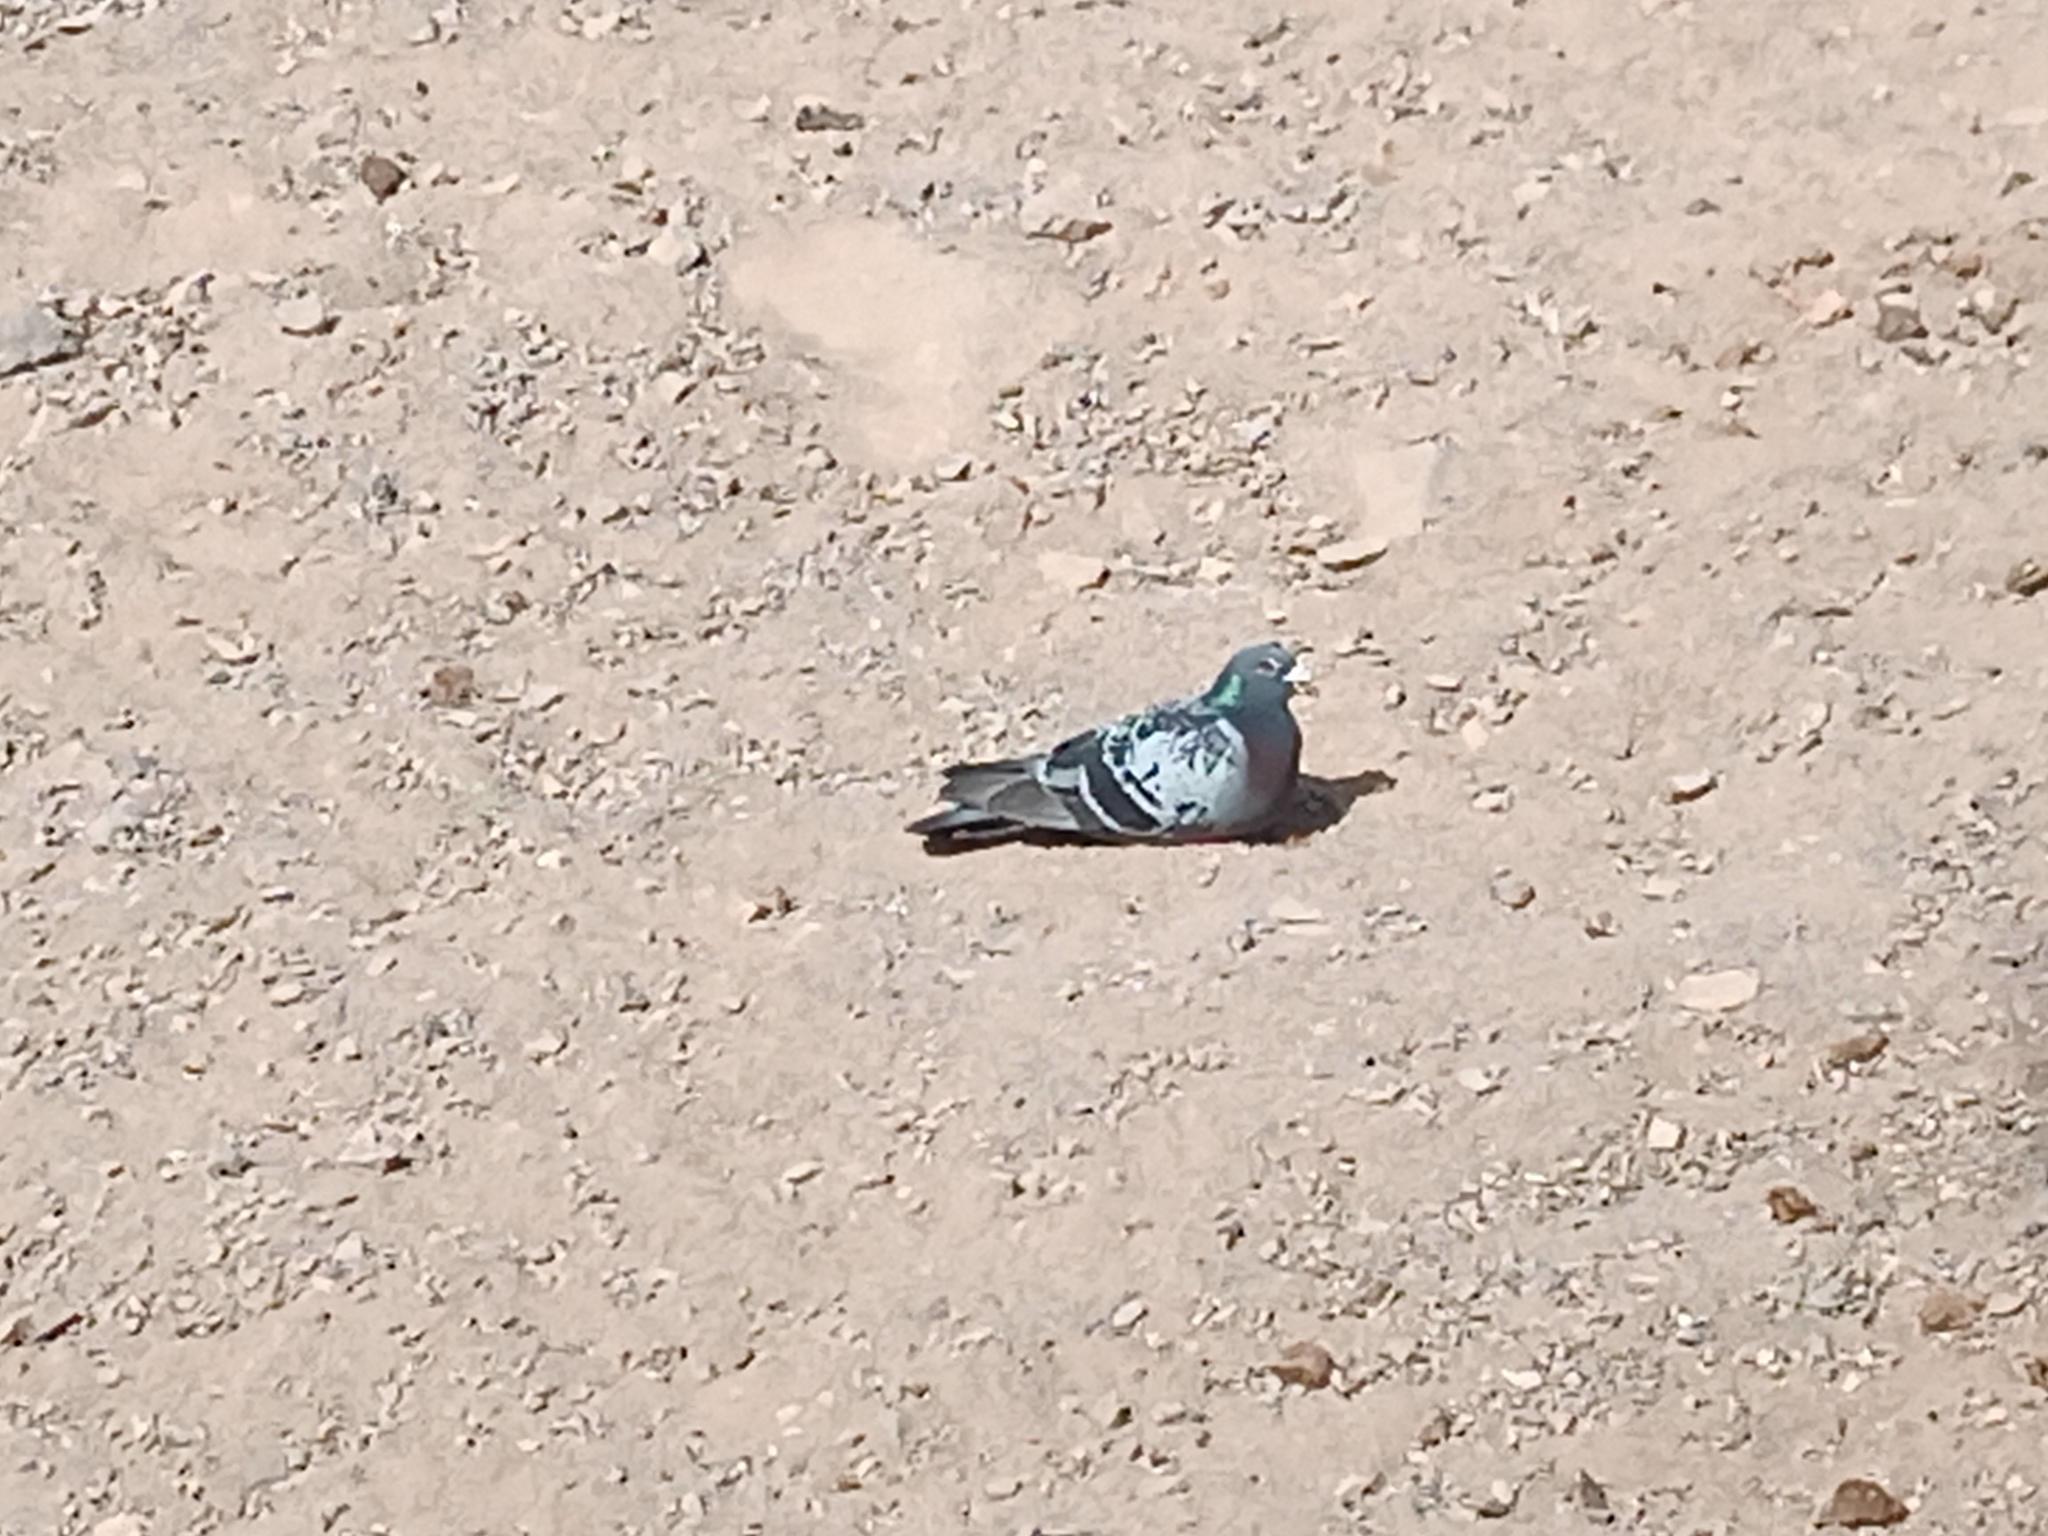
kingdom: Animalia
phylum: Chordata
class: Aves
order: Columbiformes
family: Columbidae
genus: Columba
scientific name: Columba livia
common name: Rock pigeon
